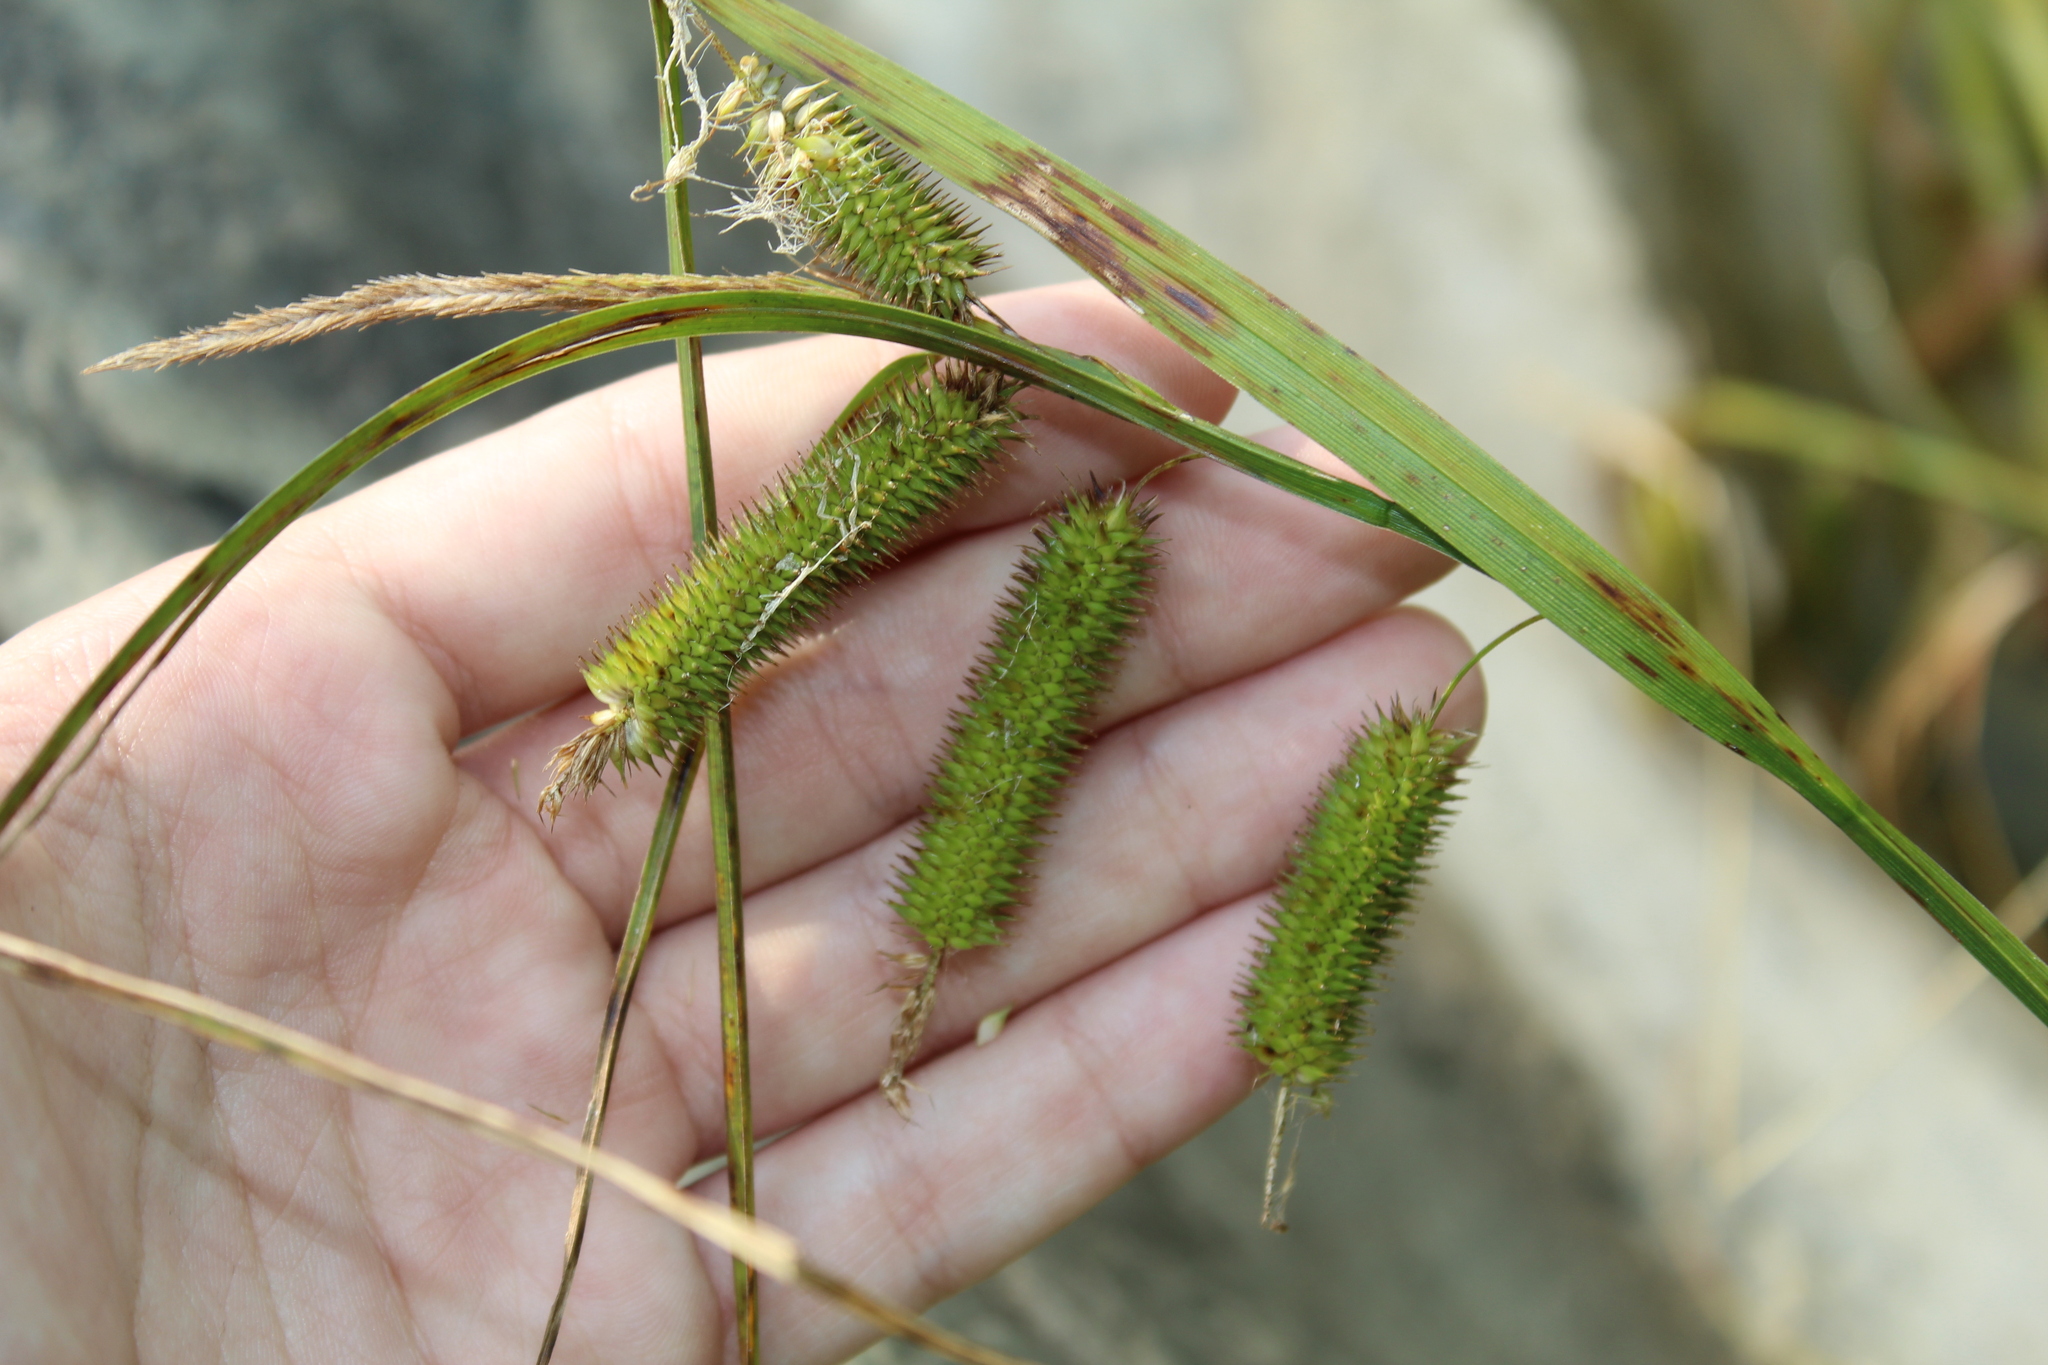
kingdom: Plantae
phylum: Tracheophyta
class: Liliopsida
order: Poales
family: Cyperaceae
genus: Carex
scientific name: Carex pseudocyperus
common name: Cyperus sedge
